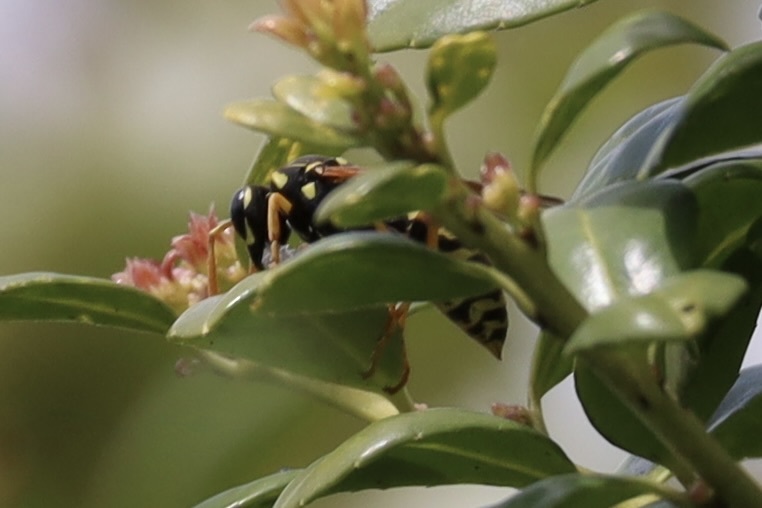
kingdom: Animalia
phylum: Arthropoda
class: Insecta
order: Hymenoptera
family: Eumenidae
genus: Polistes
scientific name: Polistes dominula
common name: Paper wasp
